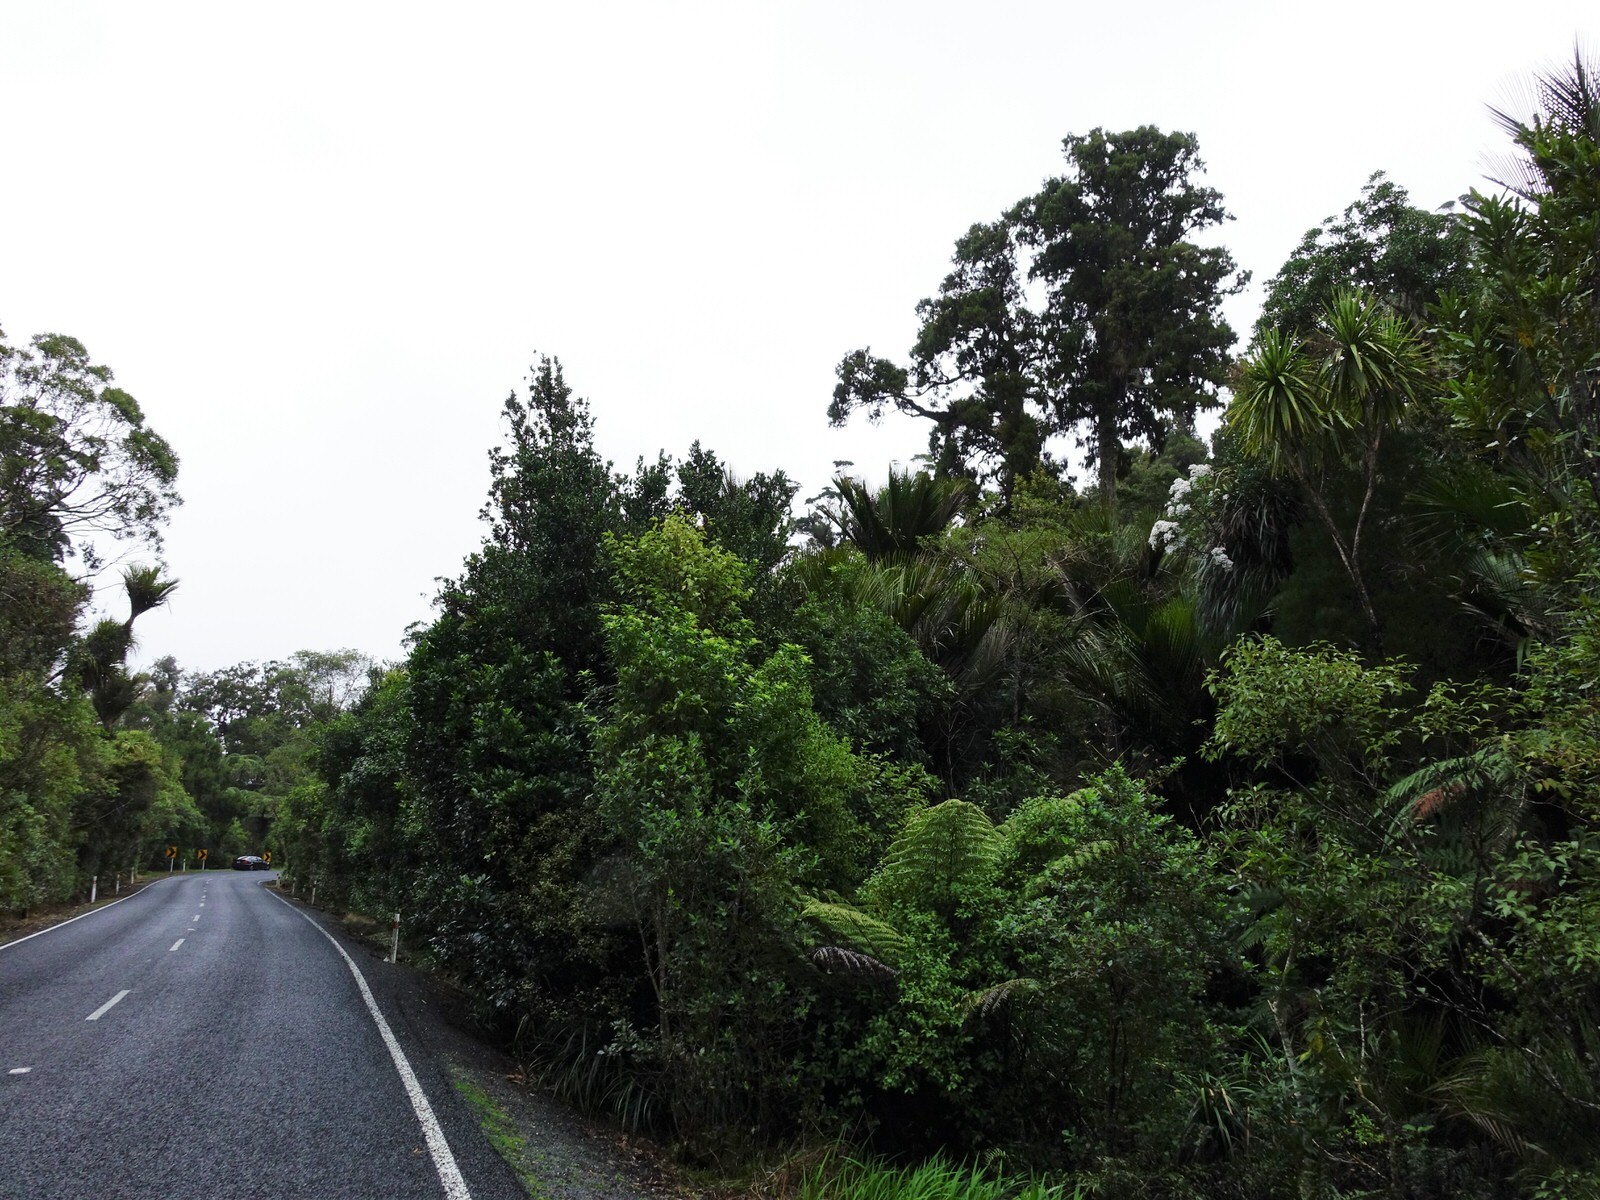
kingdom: Plantae
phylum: Tracheophyta
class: Magnoliopsida
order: Asterales
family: Asteraceae
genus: Brachyglottis
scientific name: Brachyglottis kirkii
